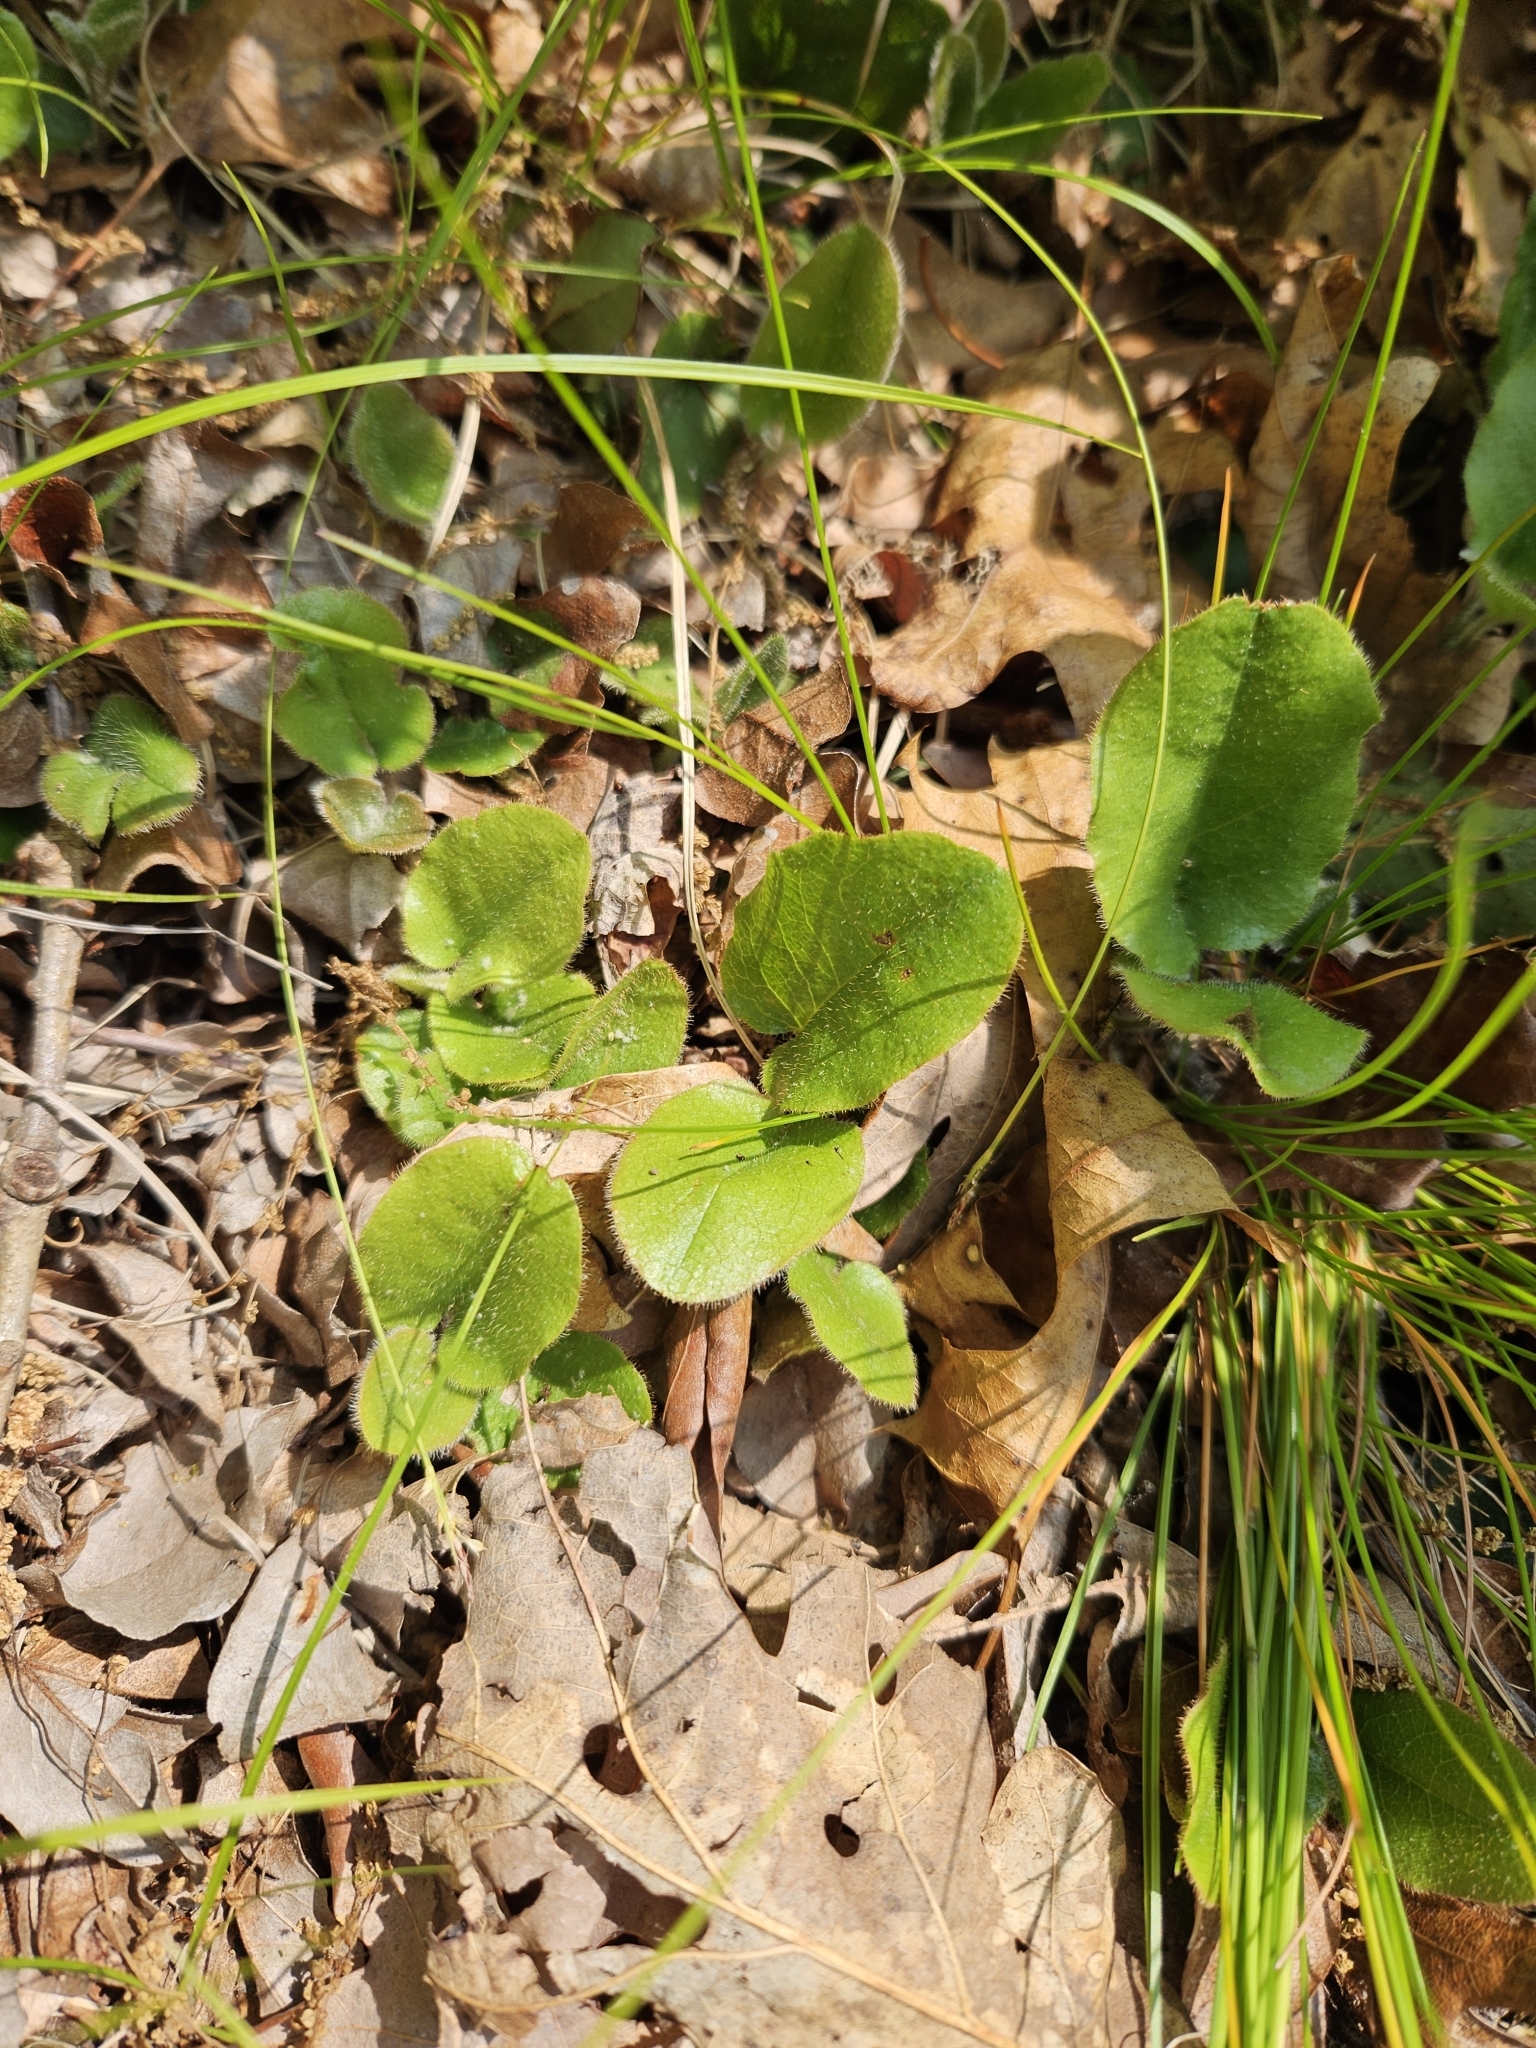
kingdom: Plantae
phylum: Tracheophyta
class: Magnoliopsida
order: Ericales
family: Ericaceae
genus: Epigaea
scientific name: Epigaea repens
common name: Gravelroot
